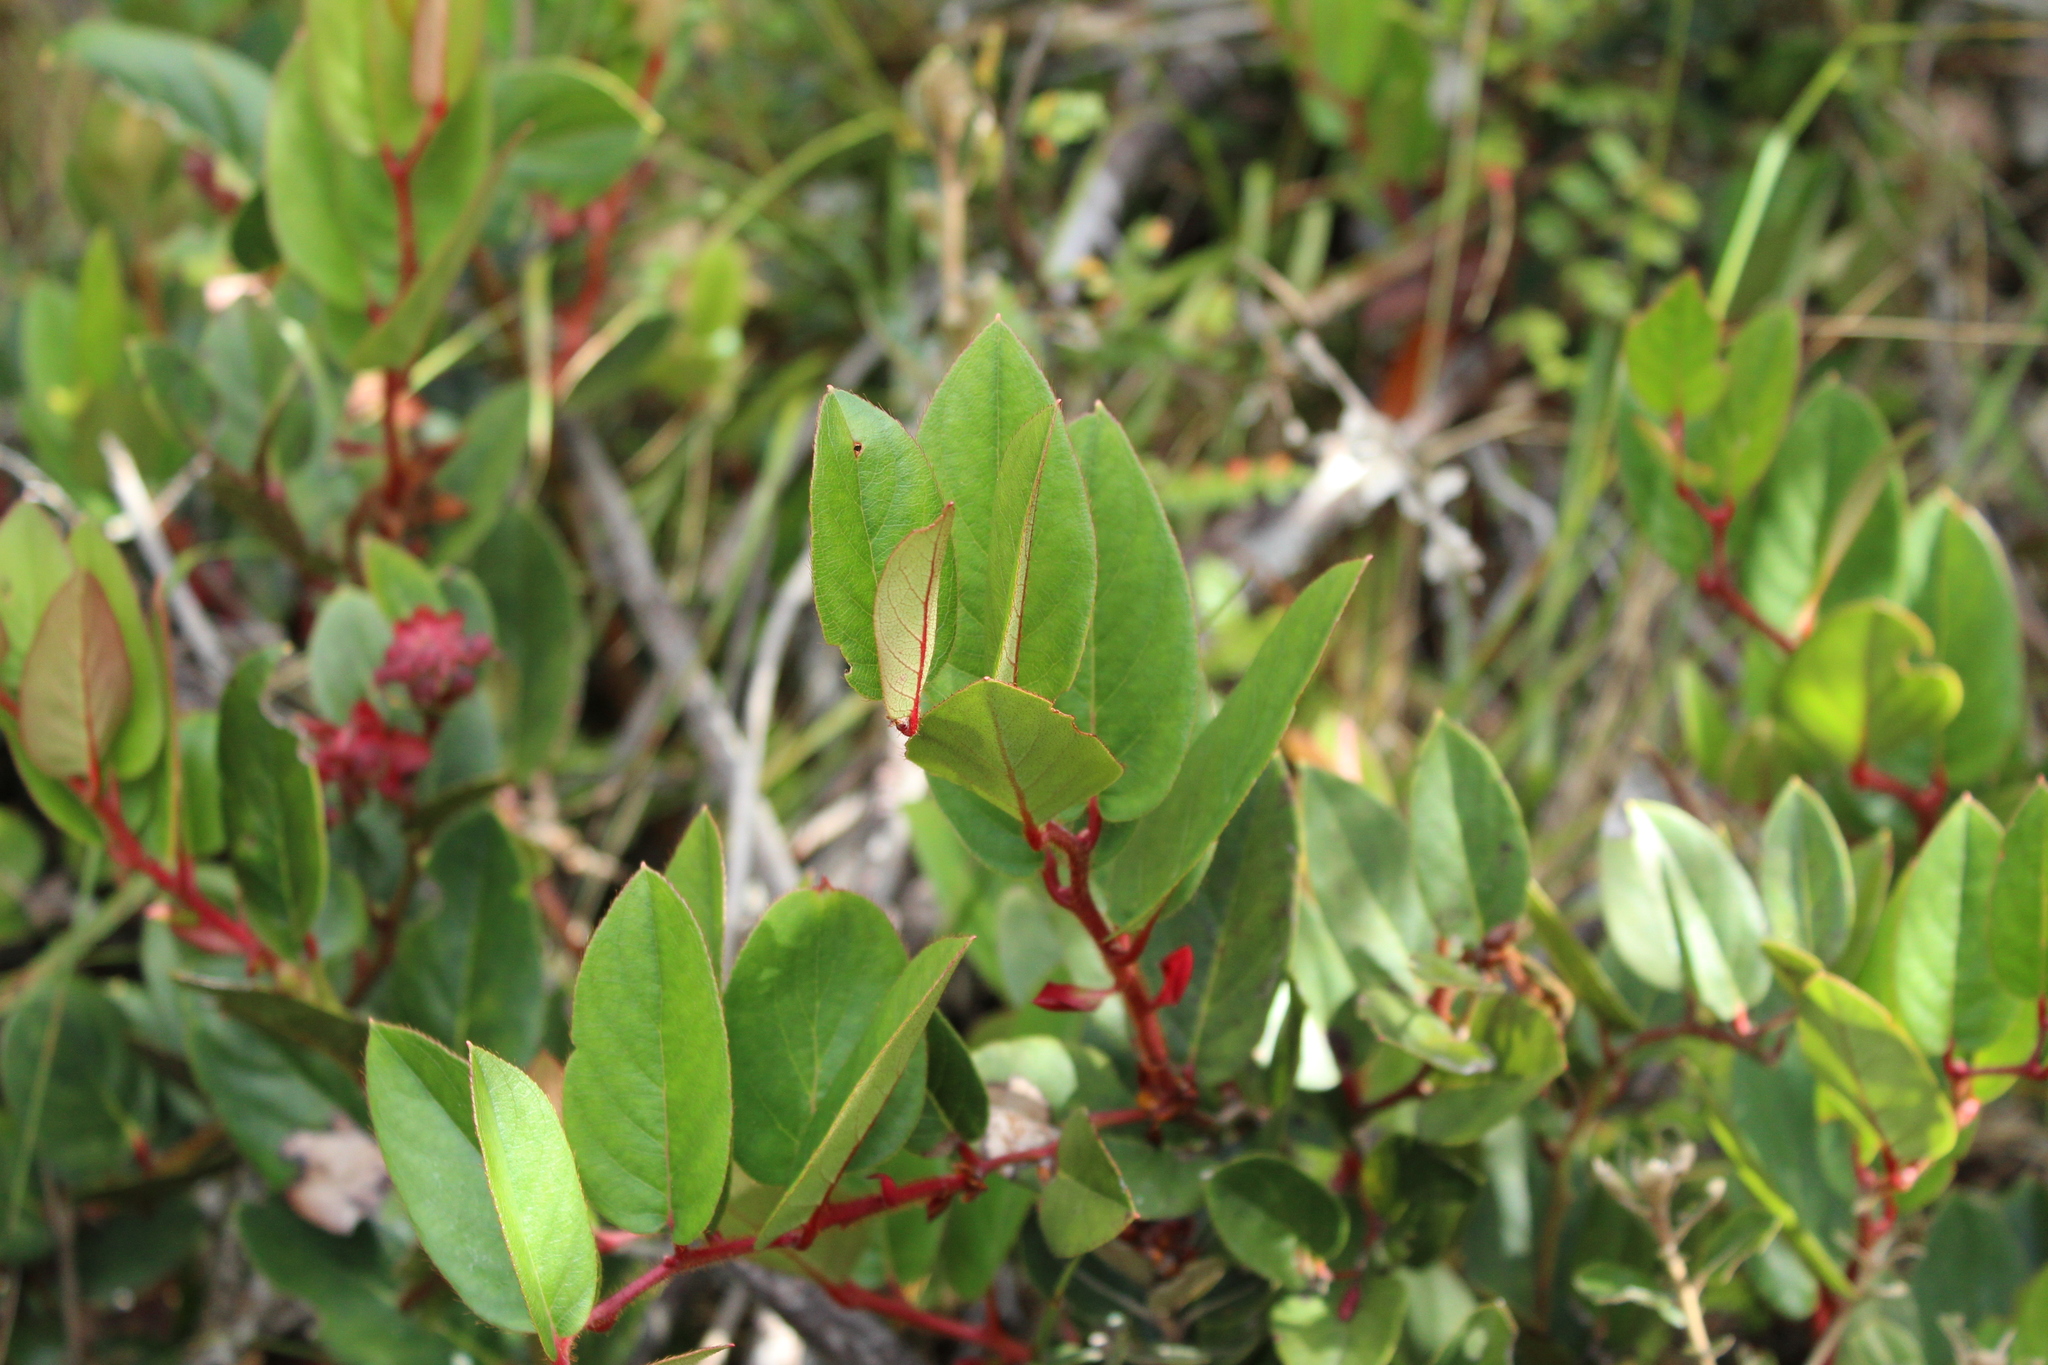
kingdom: Plantae
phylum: Tracheophyta
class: Magnoliopsida
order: Ericales
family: Ericaceae
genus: Gaultheria
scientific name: Gaultheria rigida
